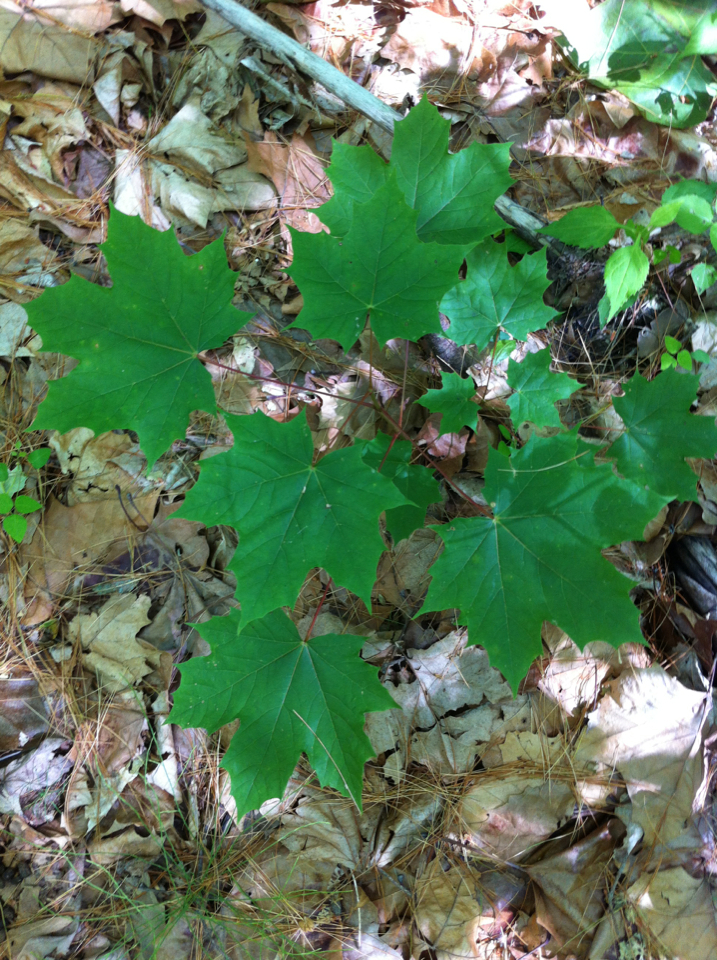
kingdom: Plantae
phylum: Tracheophyta
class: Magnoliopsida
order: Sapindales
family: Sapindaceae
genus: Acer
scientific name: Acer saccharum
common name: Sugar maple
